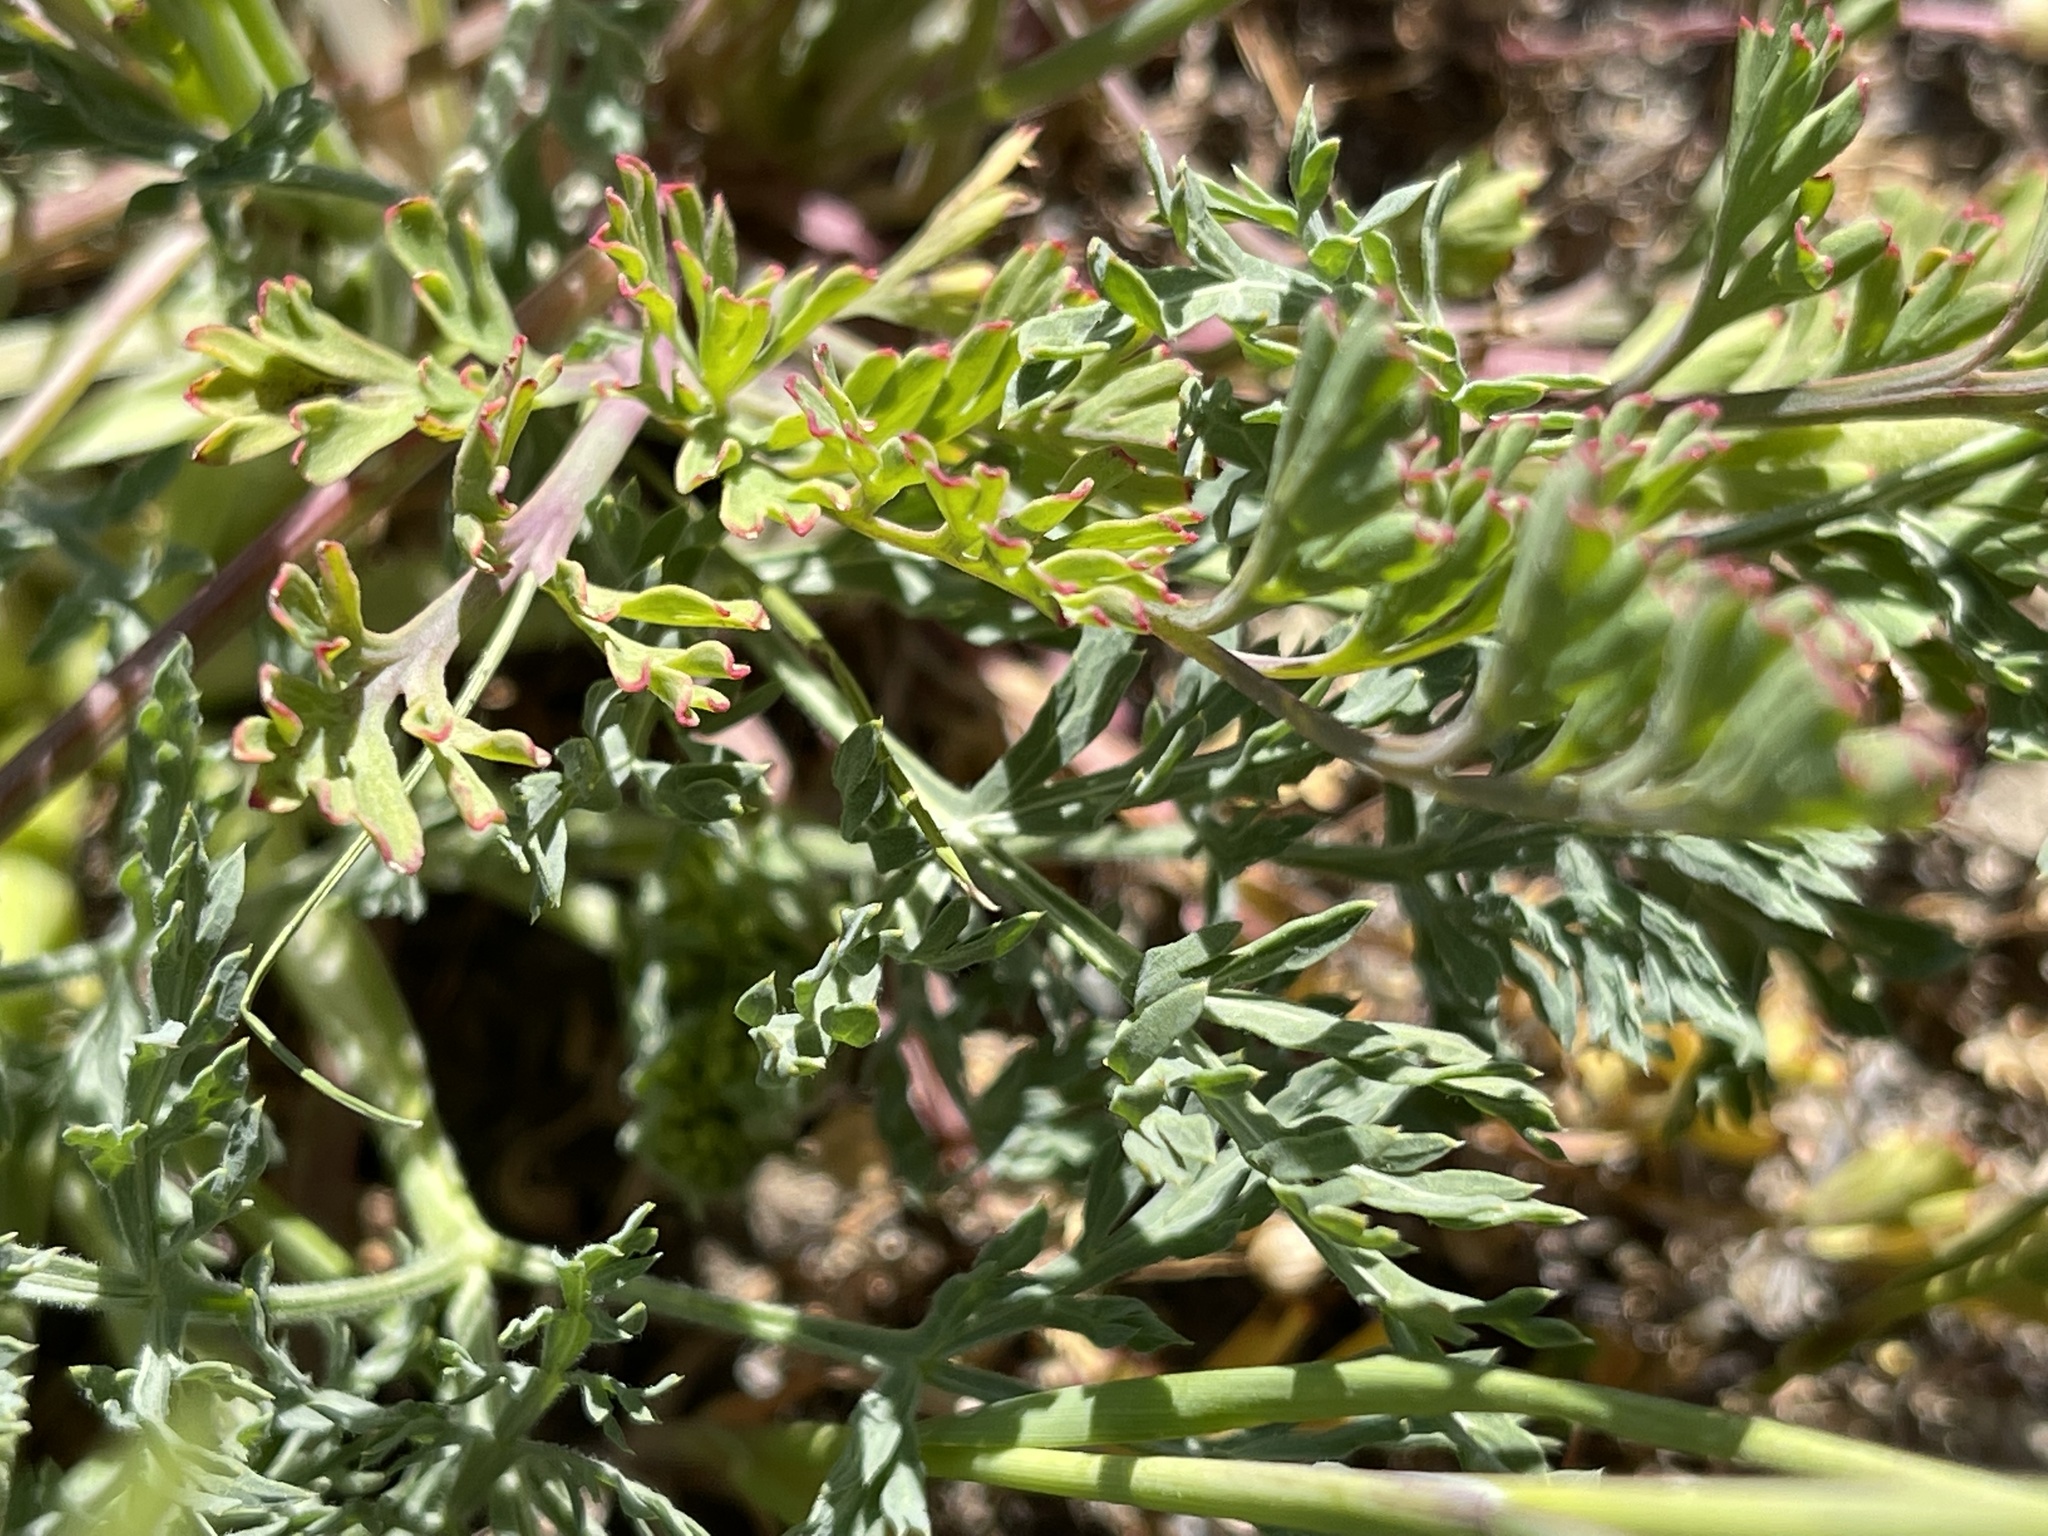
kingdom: Plantae
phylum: Tracheophyta
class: Magnoliopsida
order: Apiales
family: Apiaceae
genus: Lomatium
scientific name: Lomatium macrocarpum
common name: Big-seed biscuitroot
